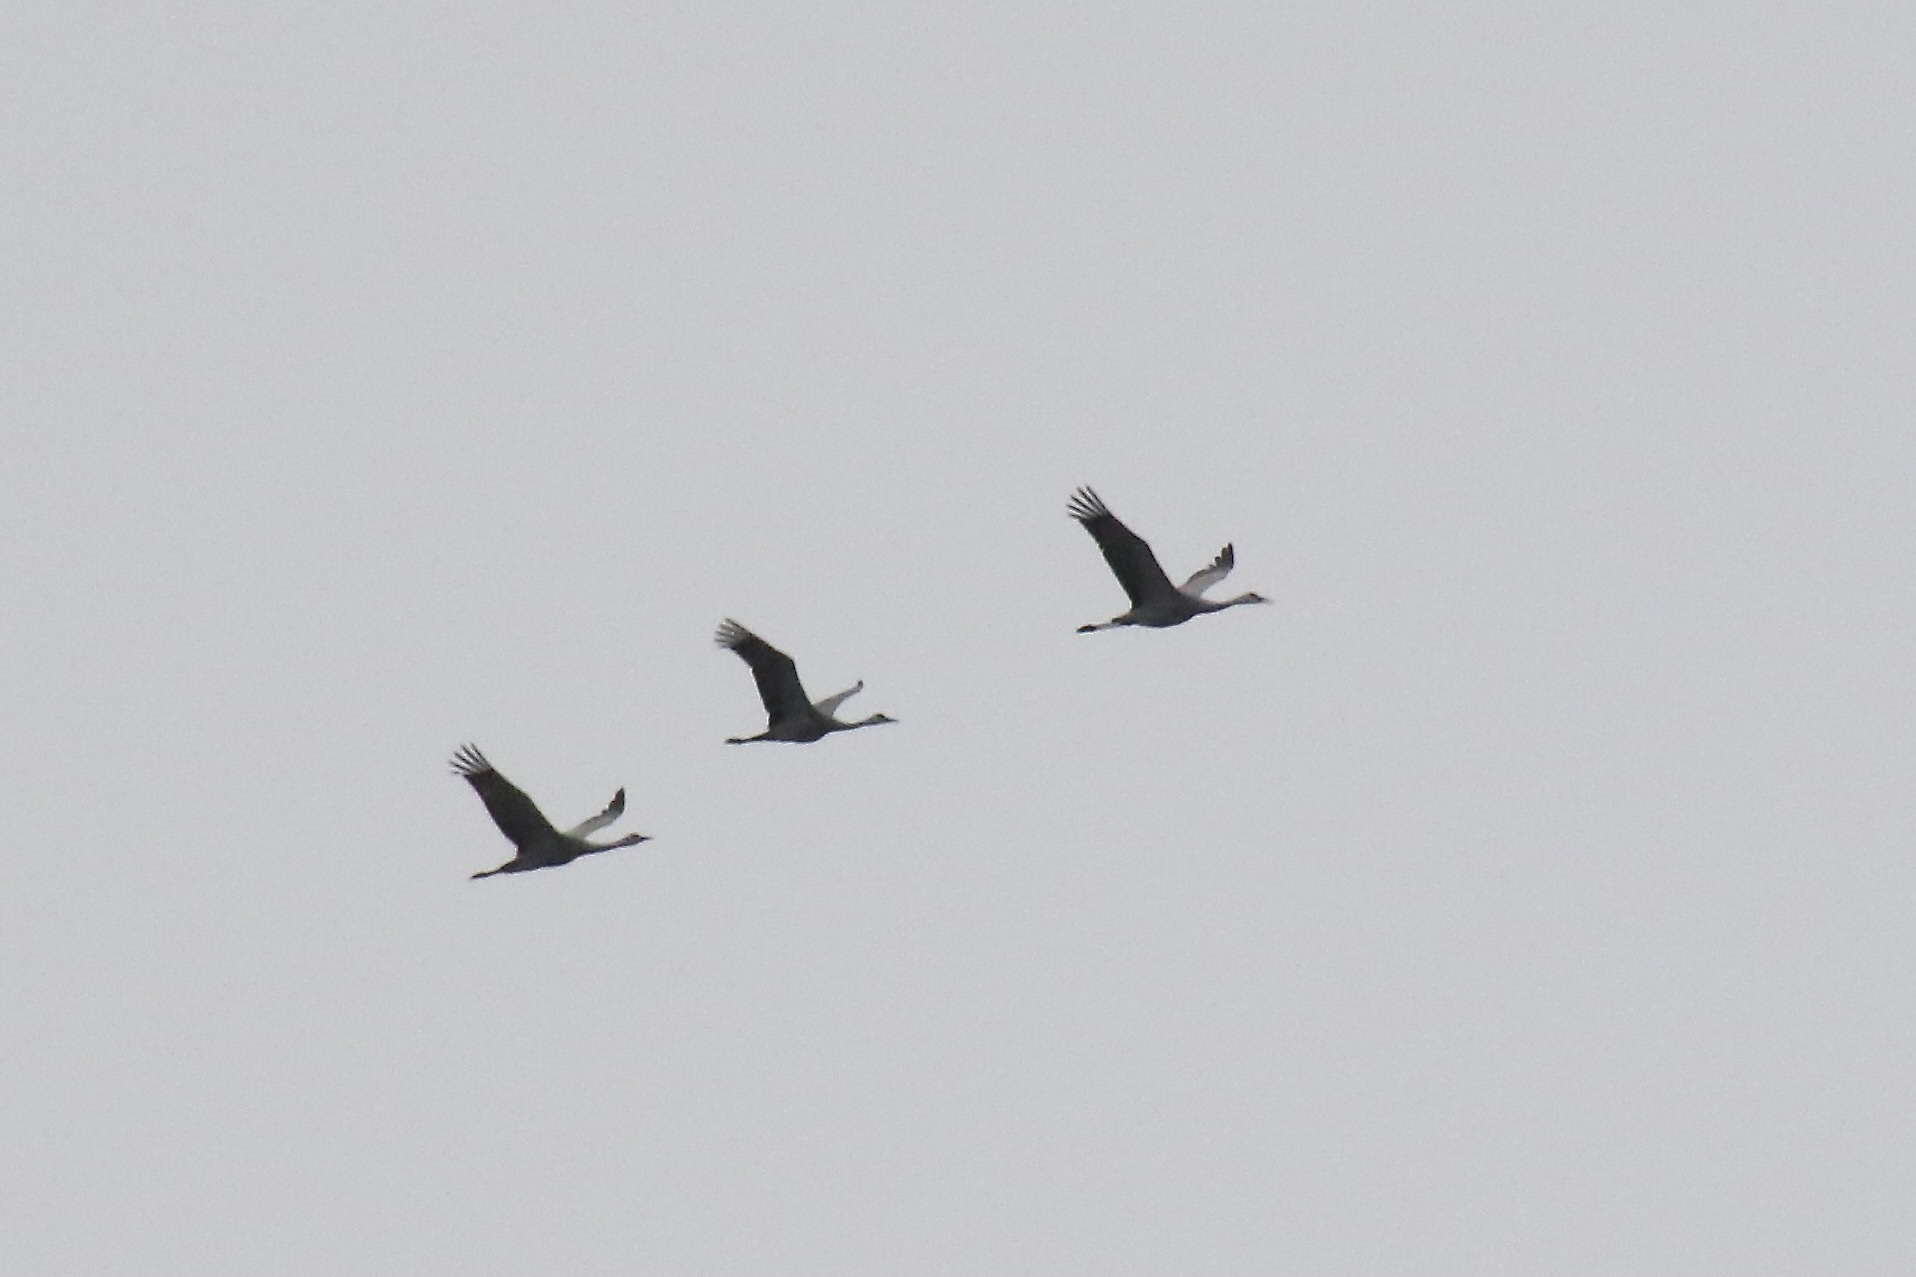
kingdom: Animalia
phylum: Chordata
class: Aves
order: Gruiformes
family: Gruidae
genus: Grus
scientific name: Grus canadensis
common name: Sandhill crane
